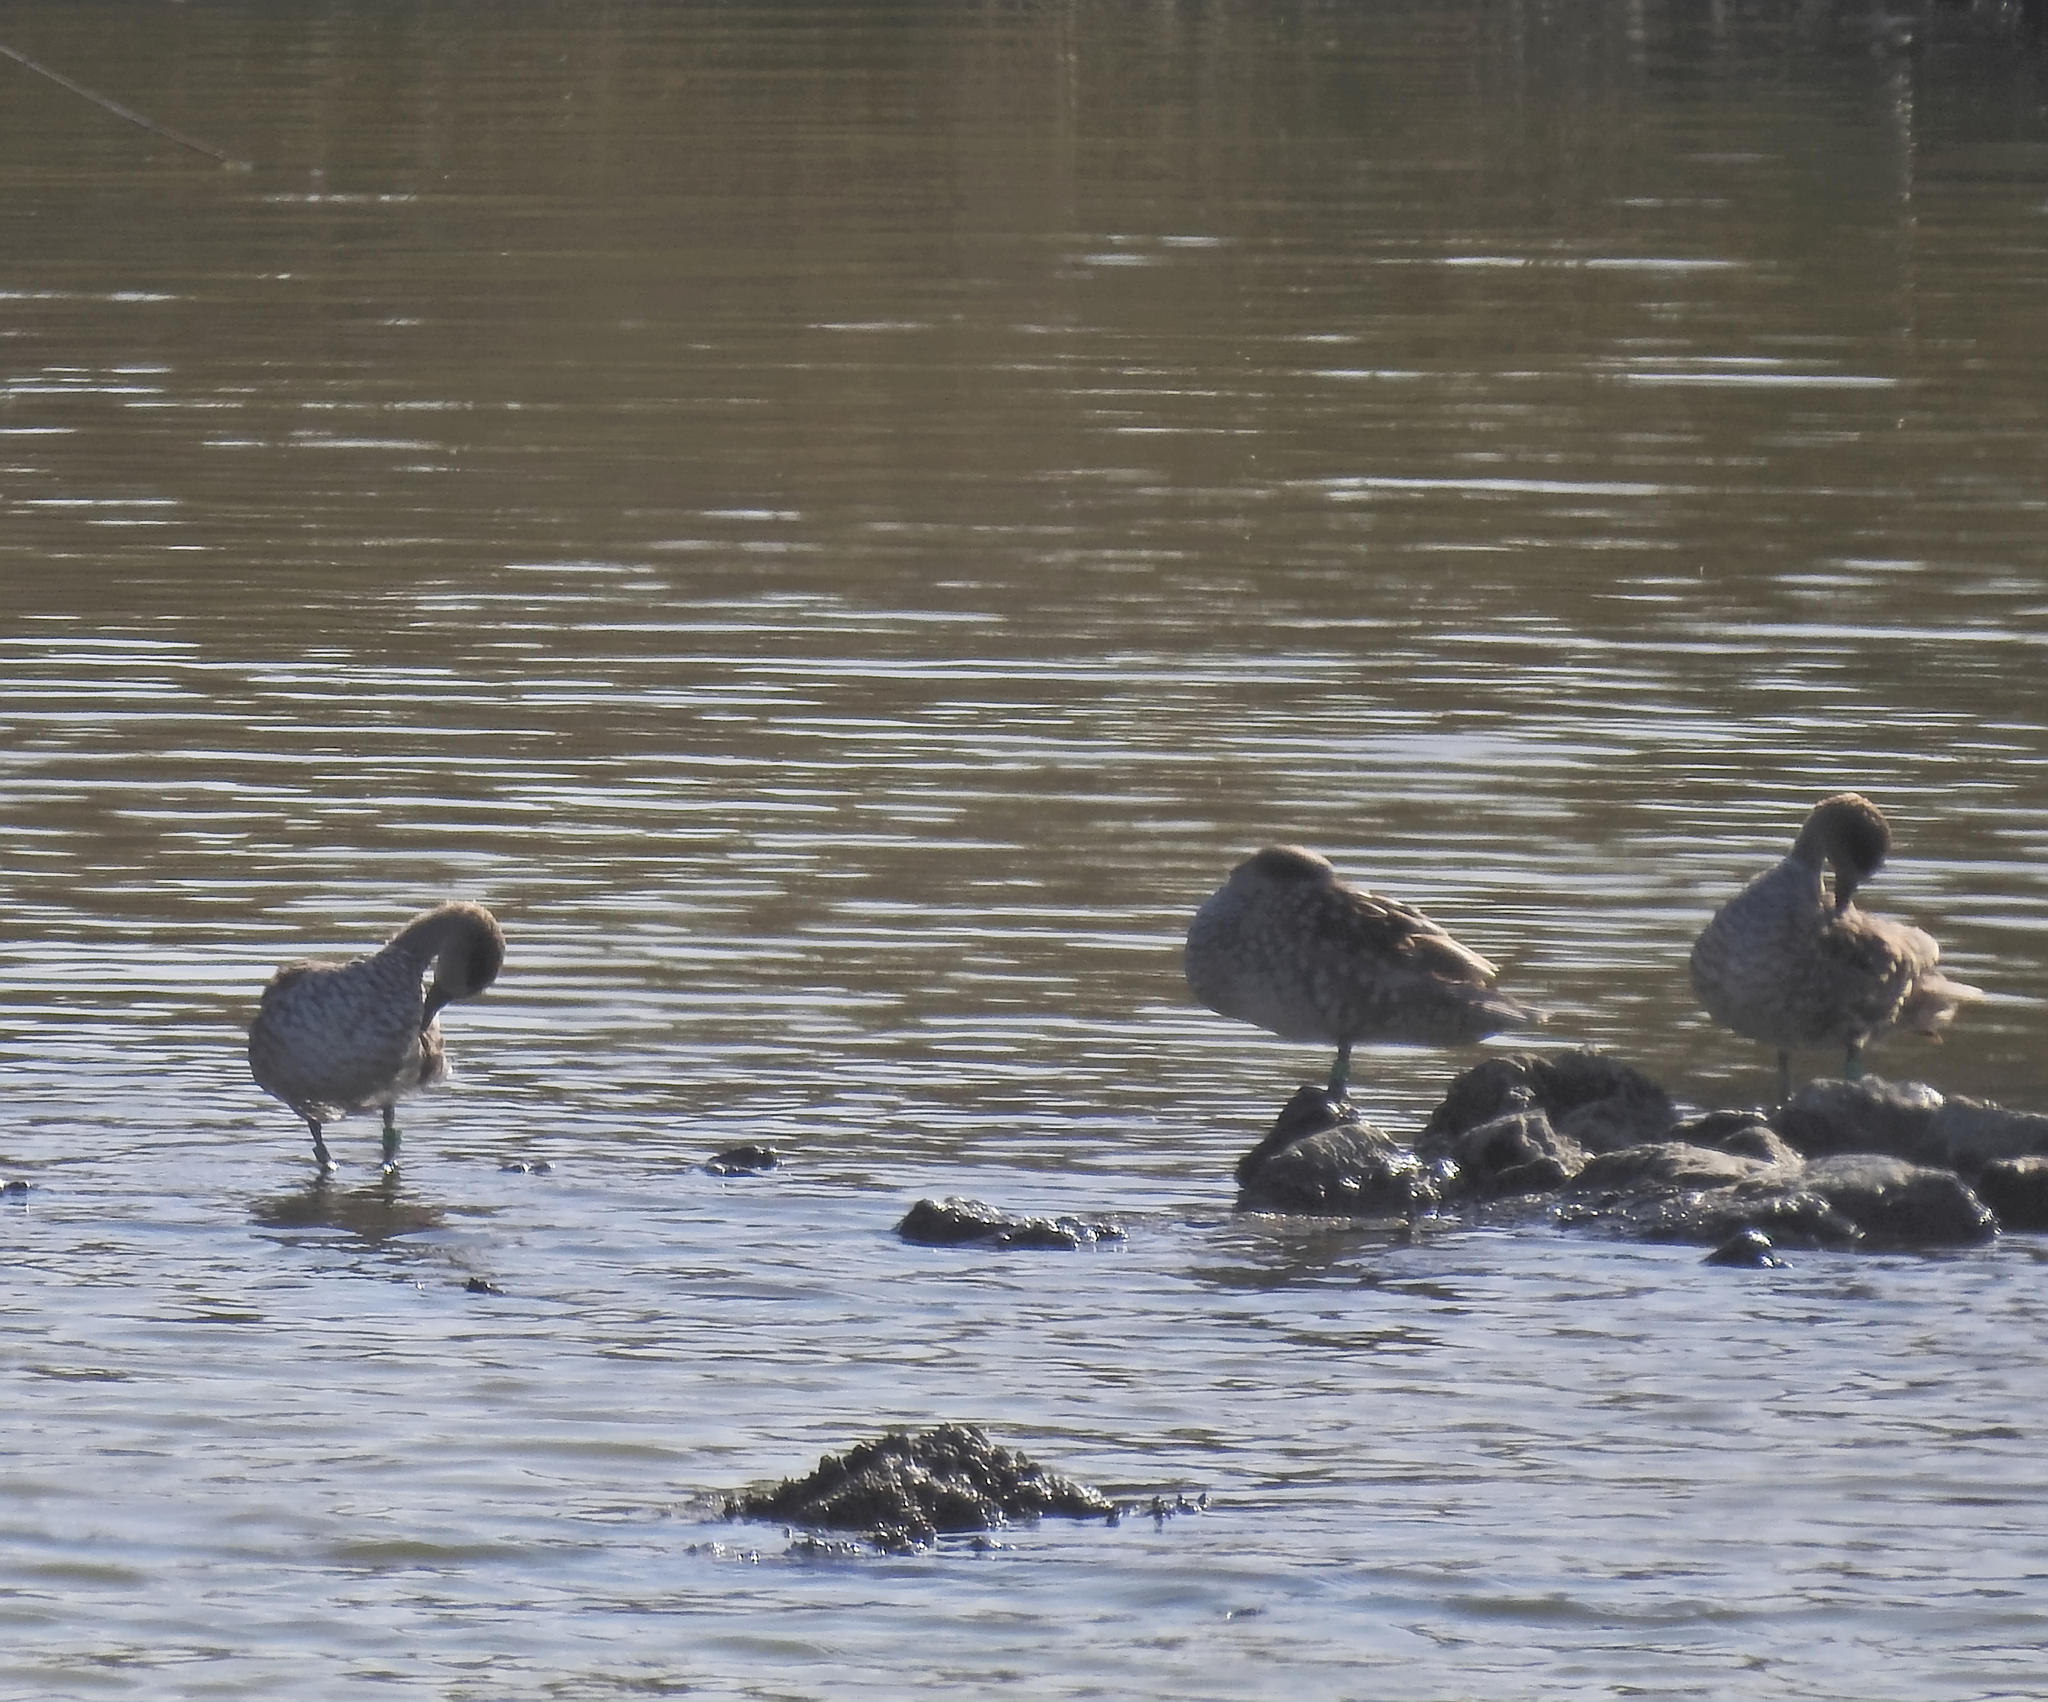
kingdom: Animalia
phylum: Chordata
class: Aves
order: Anseriformes
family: Anatidae
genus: Marmaronetta
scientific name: Marmaronetta angustirostris
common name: Marbled duck
